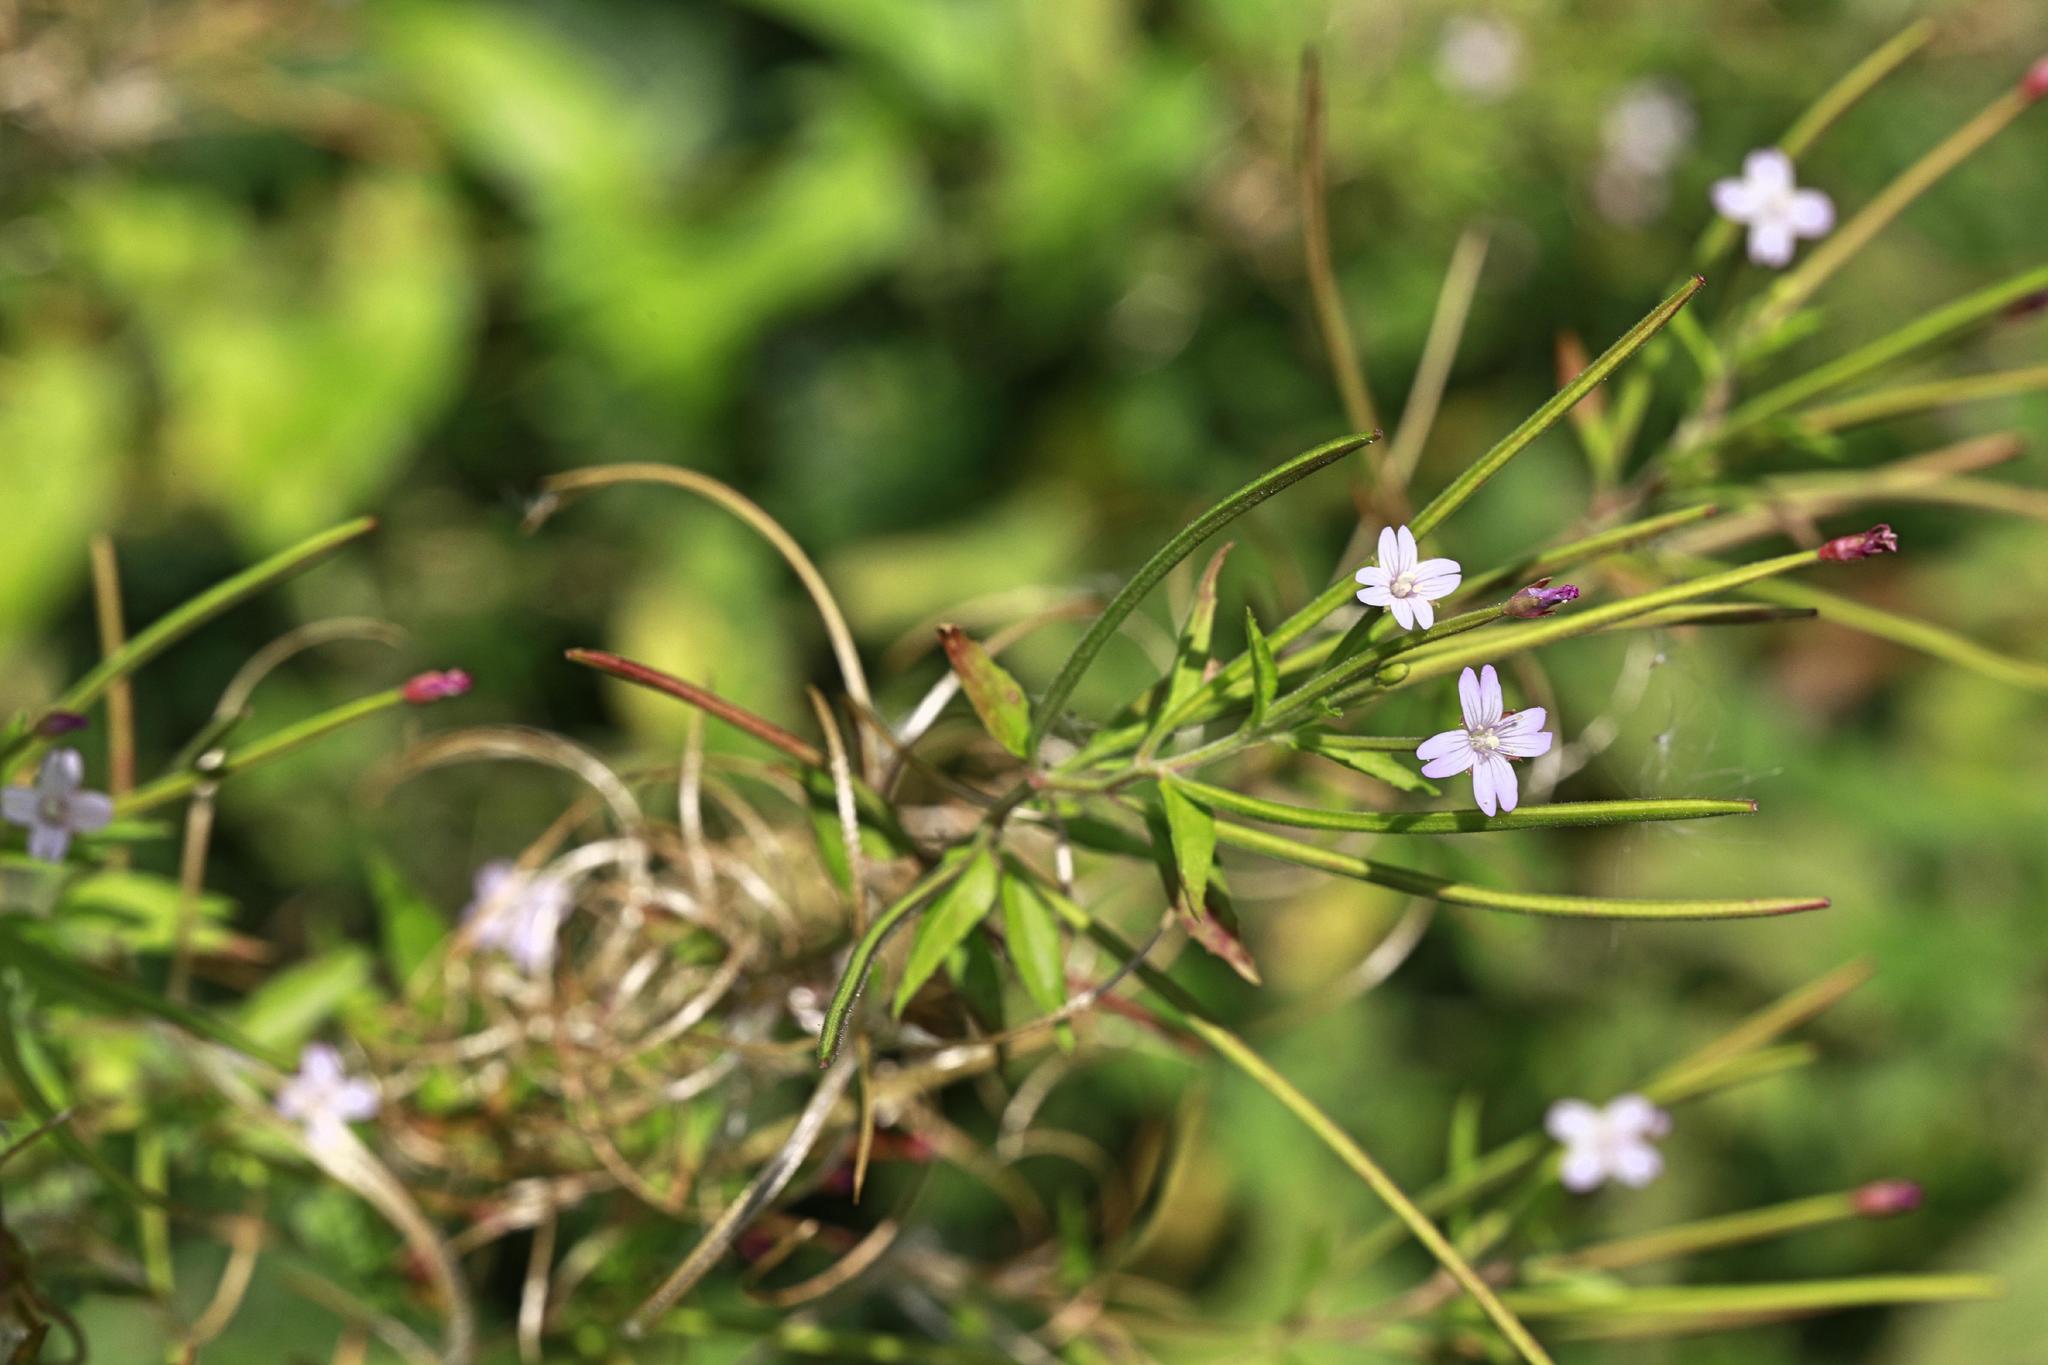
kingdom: Plantae
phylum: Tracheophyta
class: Magnoliopsida
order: Myrtales
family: Onagraceae
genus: Epilobium
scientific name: Epilobium ciliatum
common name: American willowherb
